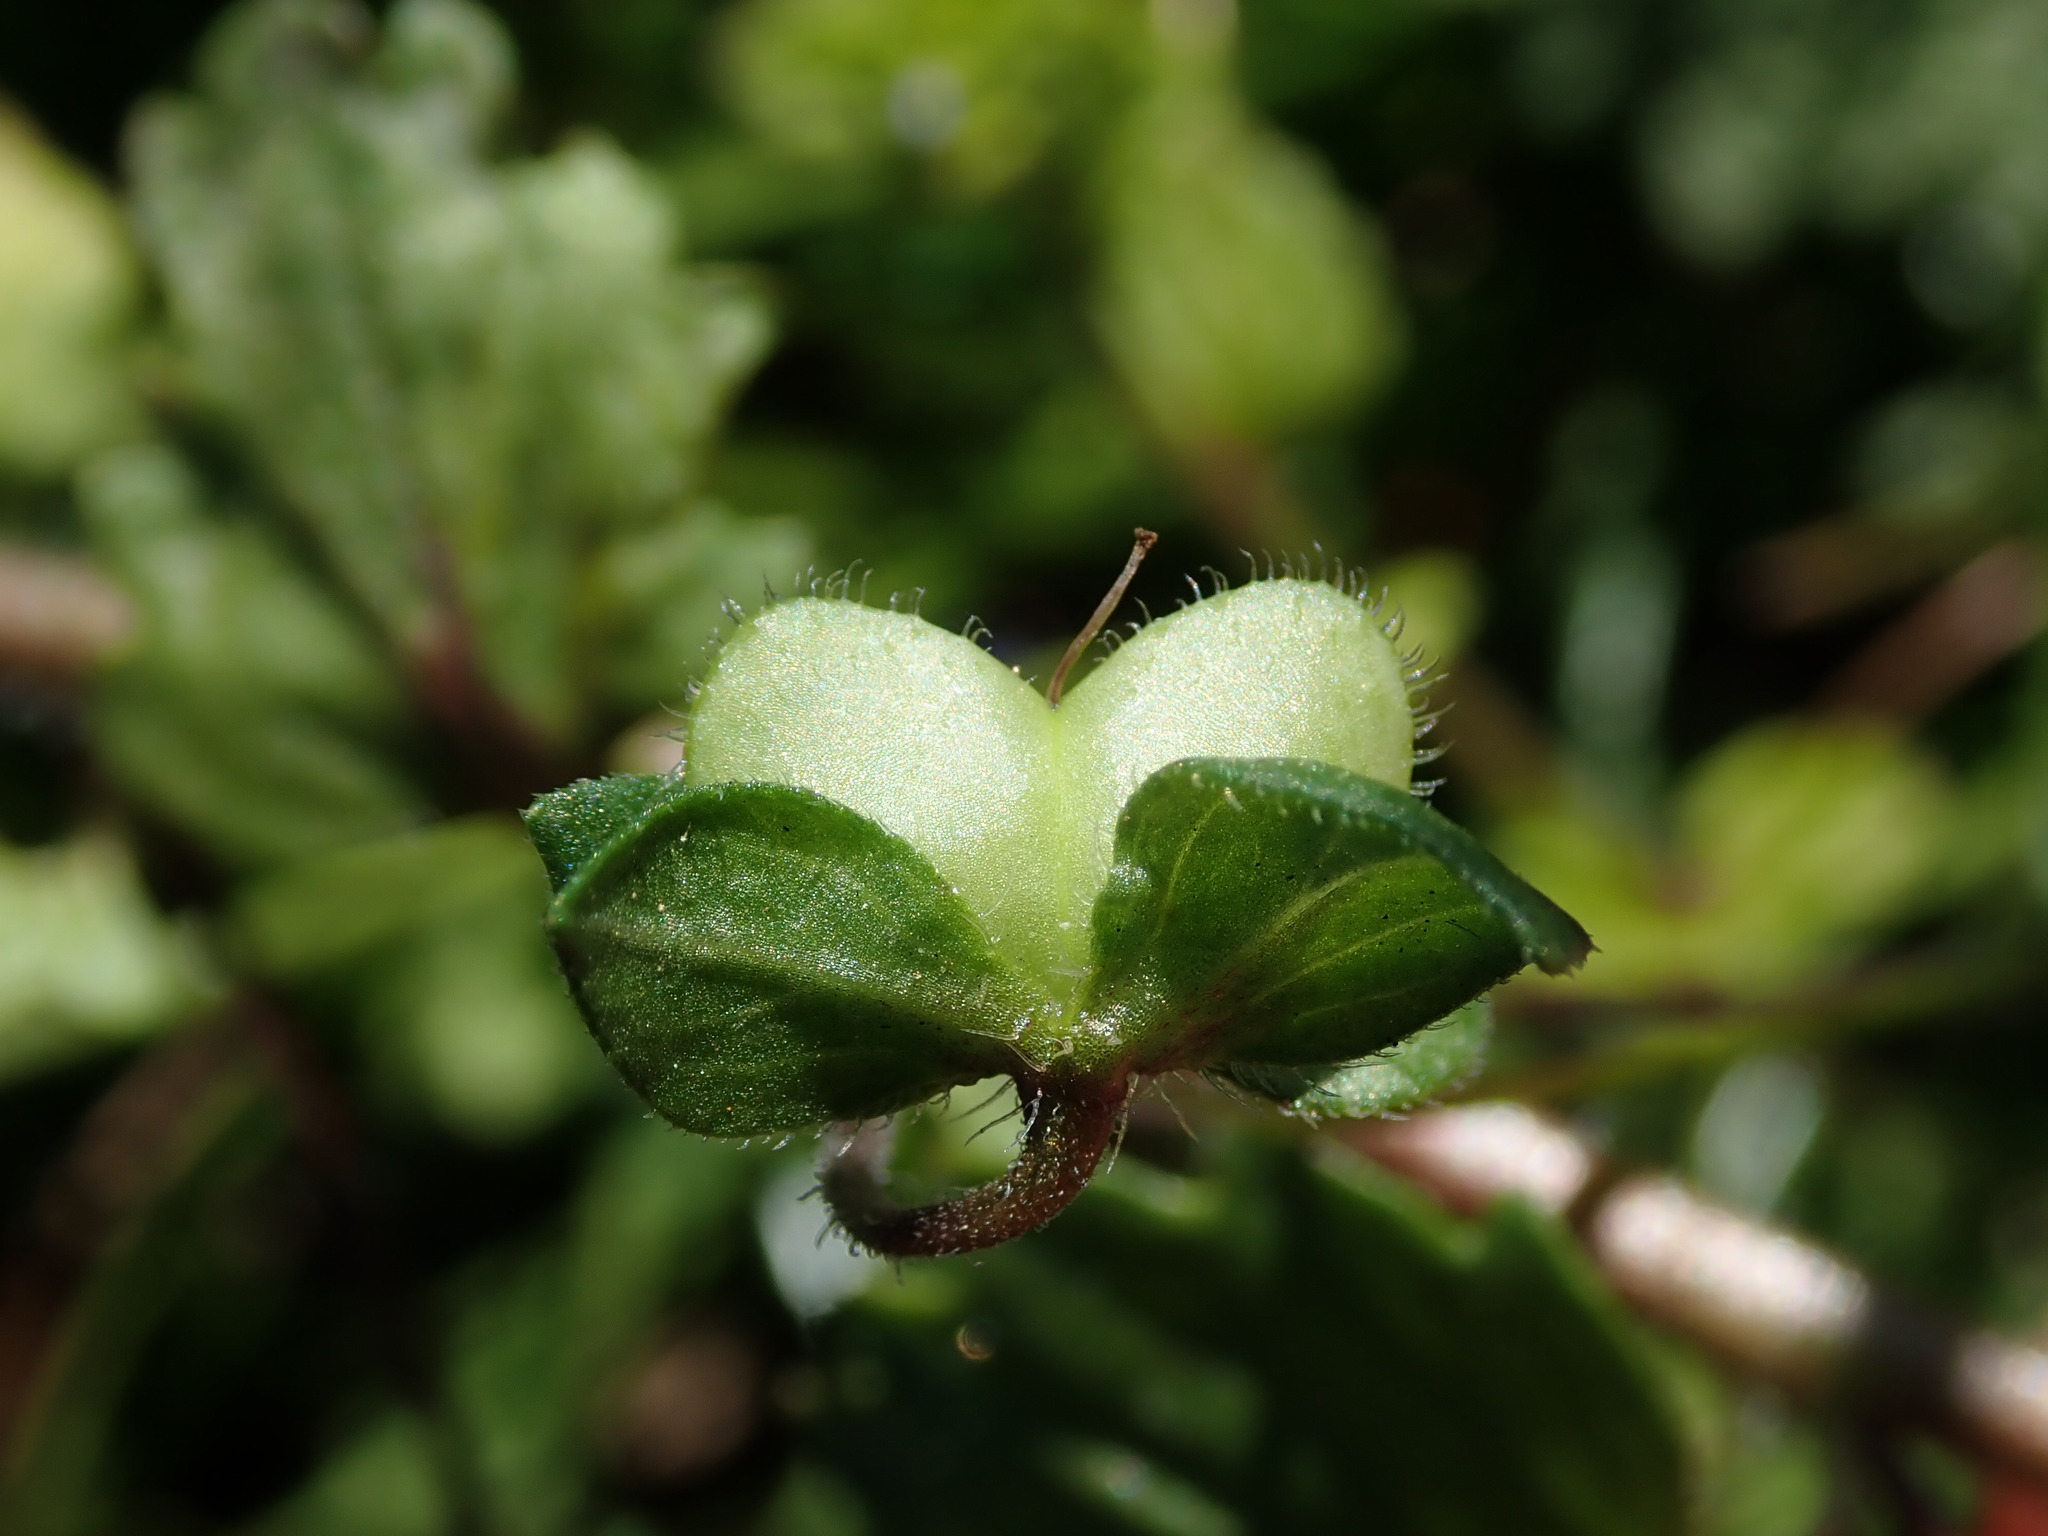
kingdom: Plantae
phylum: Tracheophyta
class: Magnoliopsida
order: Lamiales
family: Plantaginaceae
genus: Veronica
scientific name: Veronica persica
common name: Common field-speedwell
